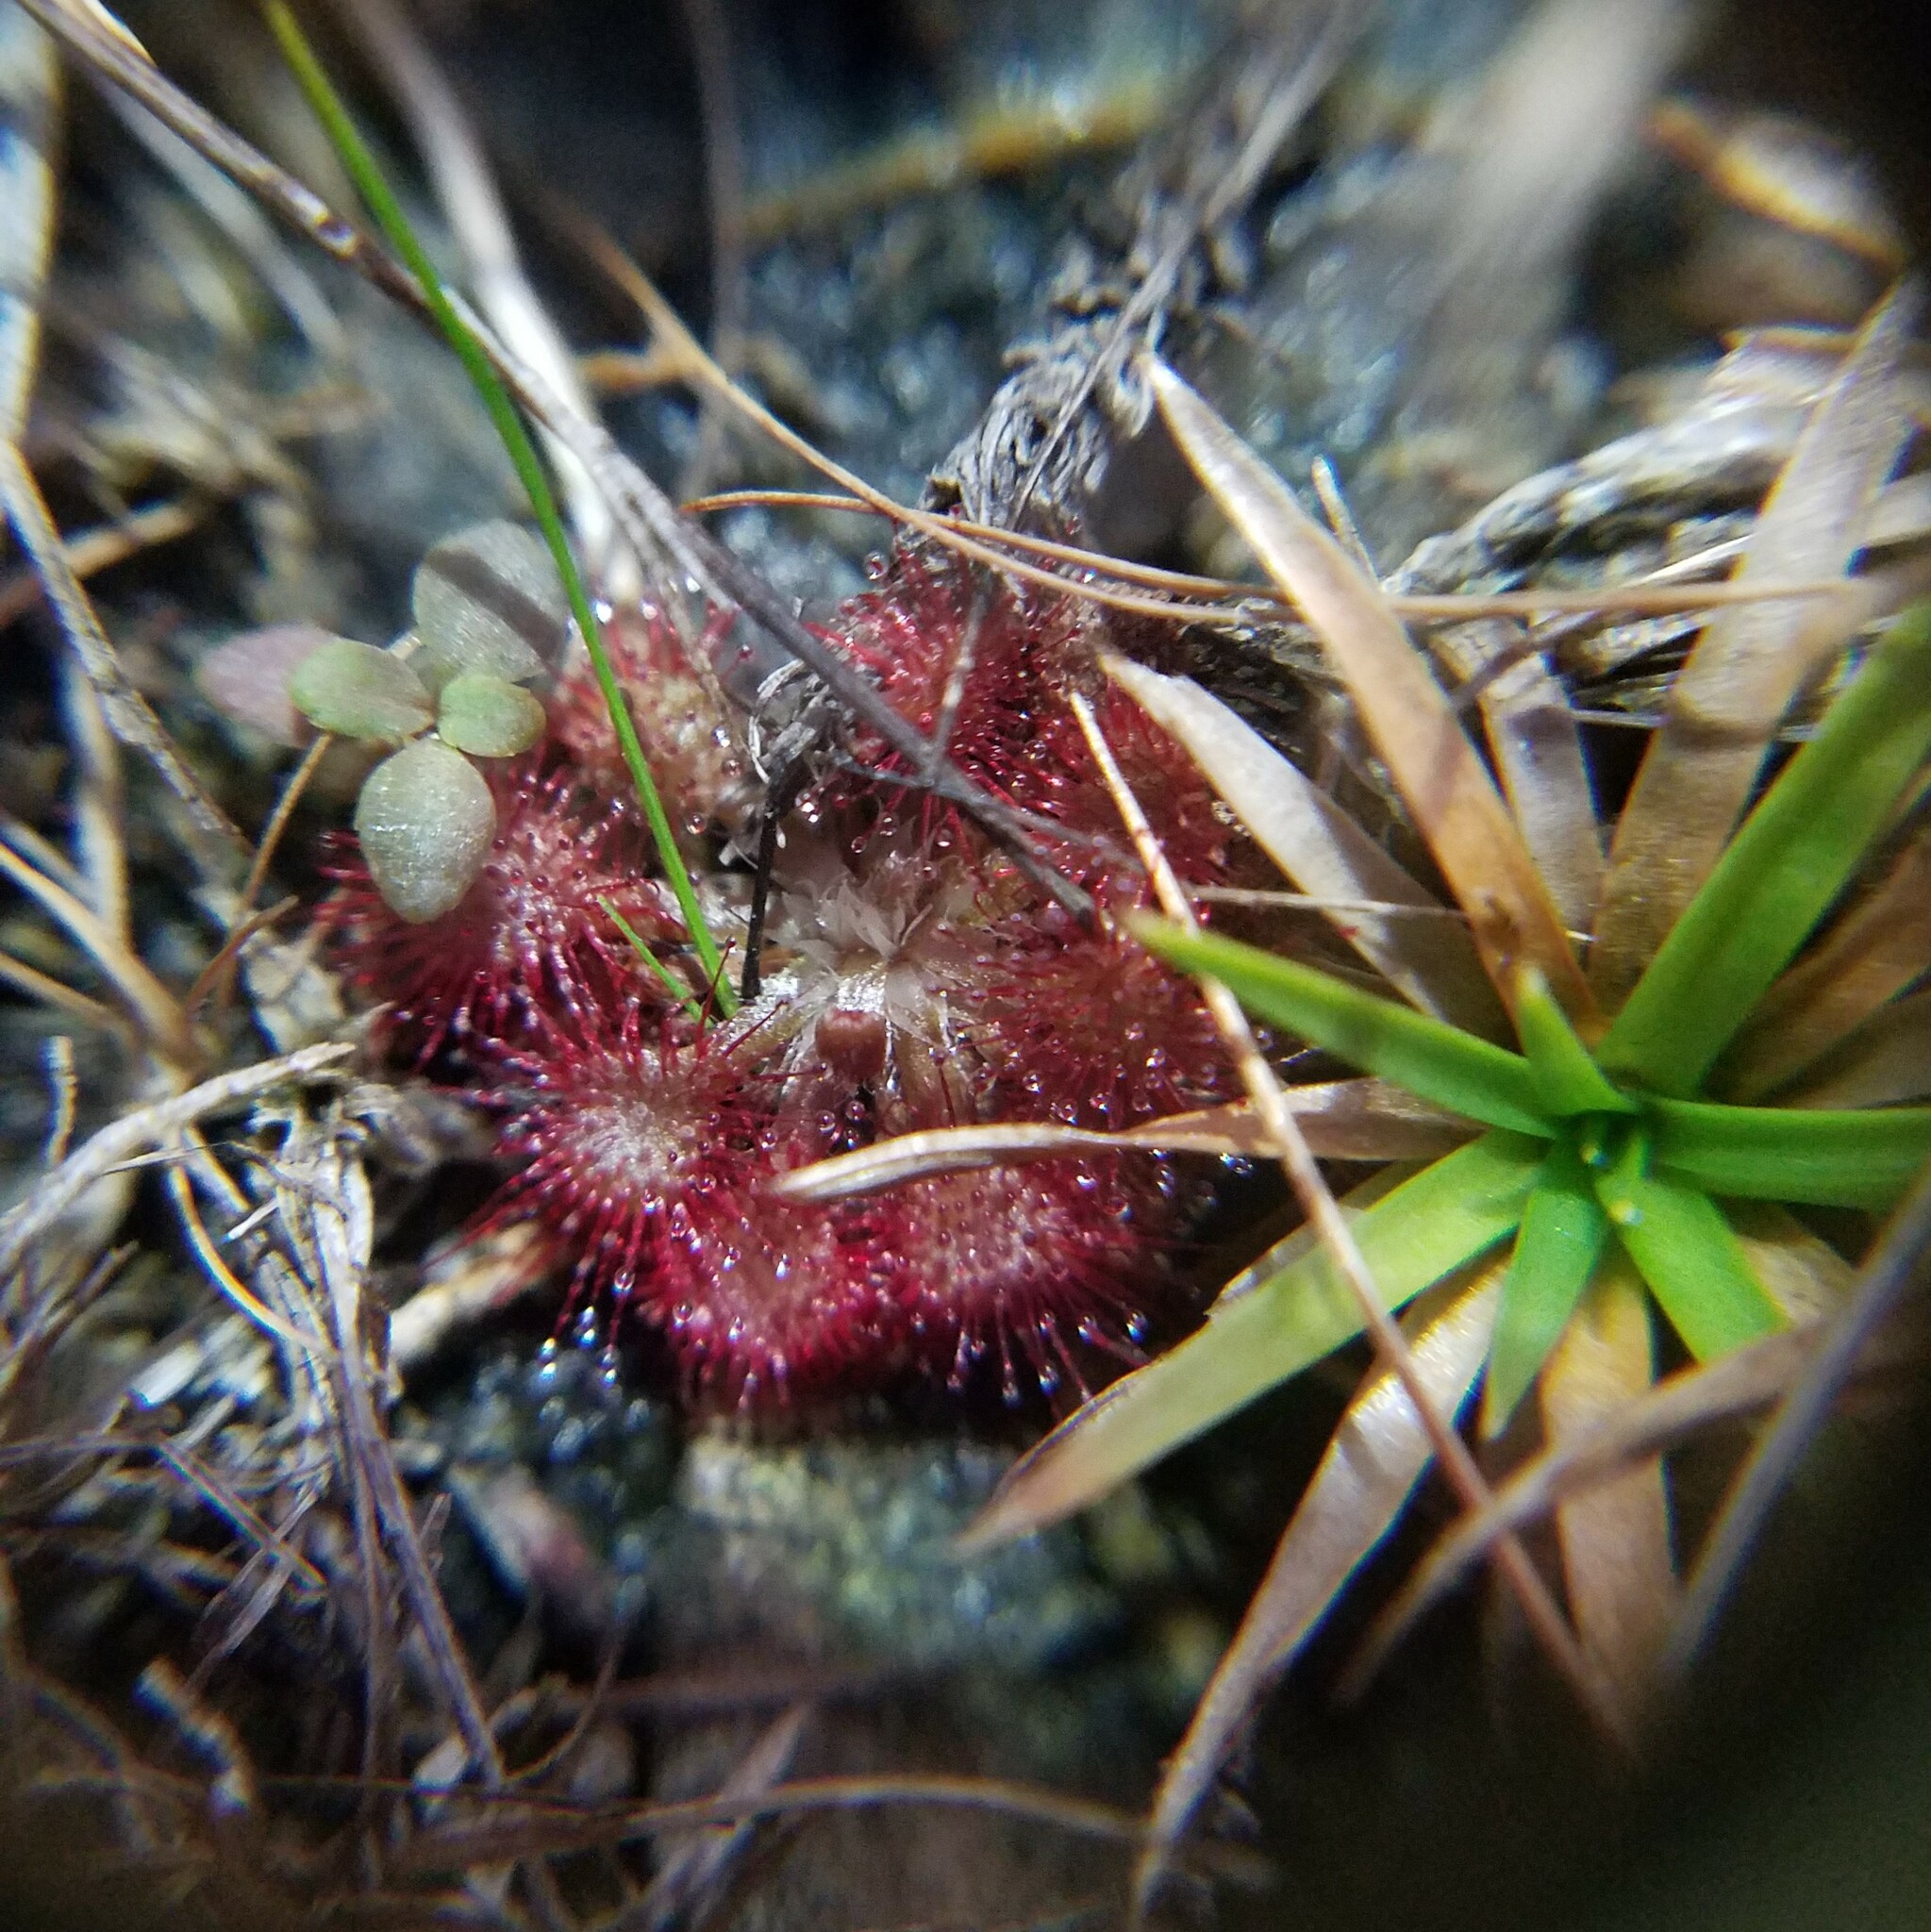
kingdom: Plantae
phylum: Tracheophyta
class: Magnoliopsida
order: Caryophyllales
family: Droseraceae
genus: Drosera
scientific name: Drosera capillaris
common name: Pink sundew
